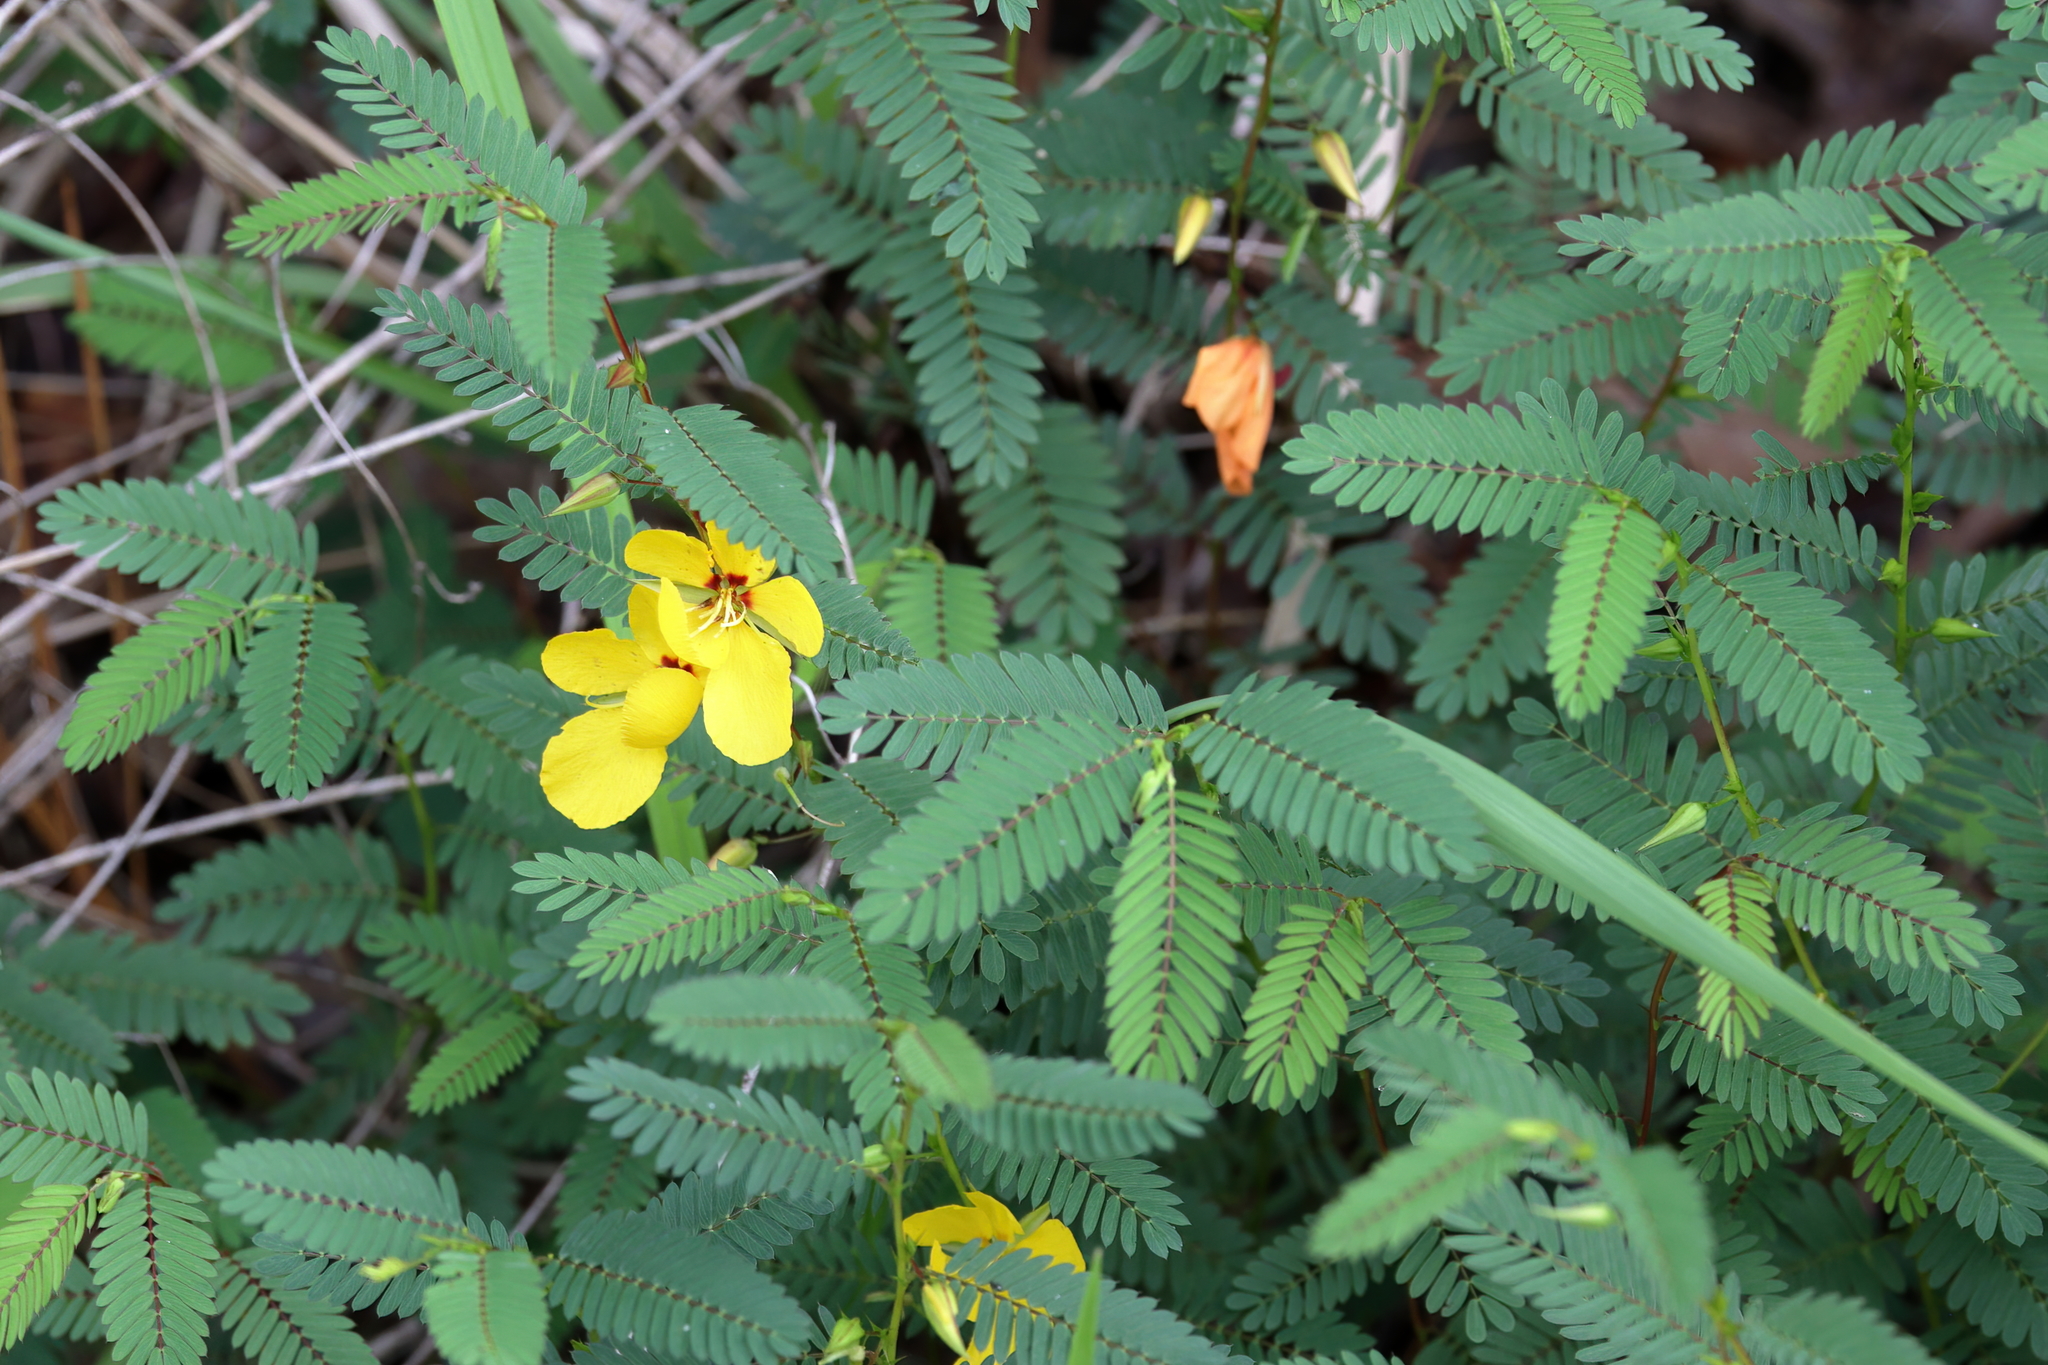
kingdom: Plantae
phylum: Tracheophyta
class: Magnoliopsida
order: Fabales
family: Fabaceae
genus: Chamaecrista
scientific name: Chamaecrista fasciculata
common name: Golden cassia
